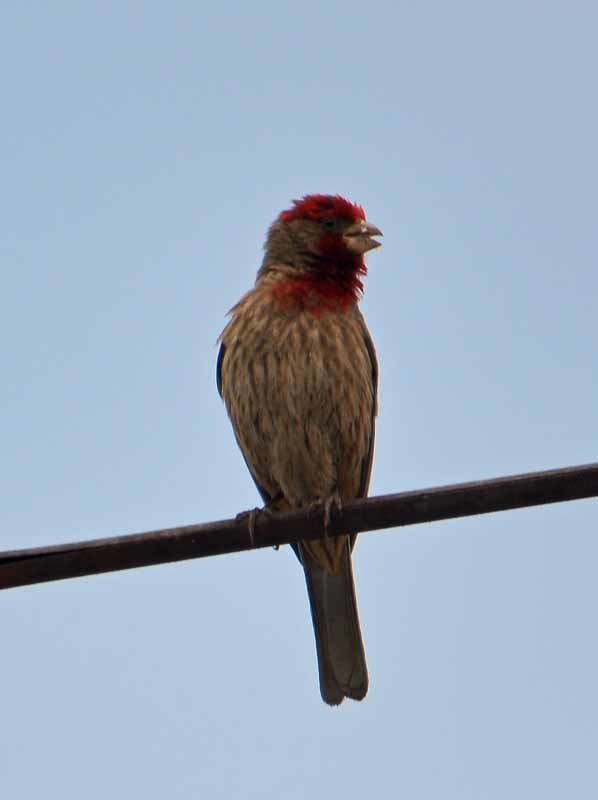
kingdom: Animalia
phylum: Chordata
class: Aves
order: Passeriformes
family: Fringillidae
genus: Haemorhous
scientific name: Haemorhous mexicanus
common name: House finch
